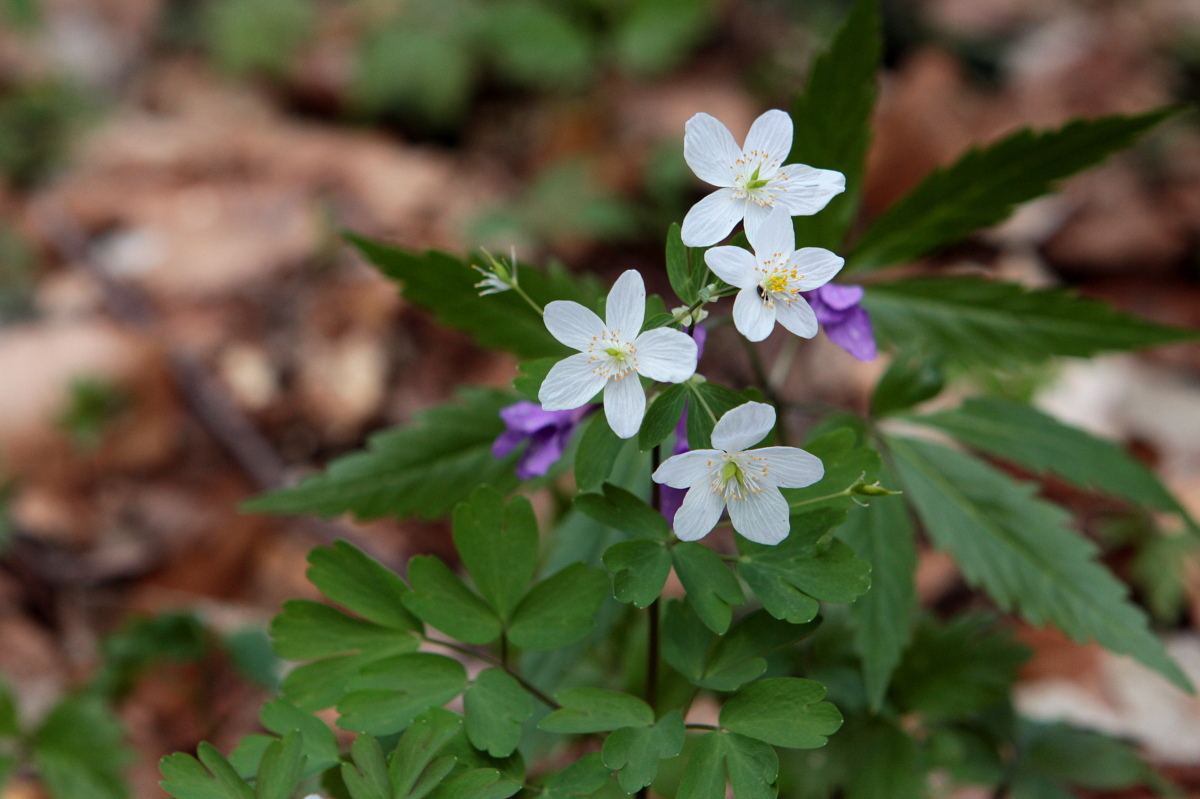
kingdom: Plantae
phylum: Tracheophyta
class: Magnoliopsida
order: Ranunculales
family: Ranunculaceae
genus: Isopyrum
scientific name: Isopyrum thalictroides
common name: Isopyrum
